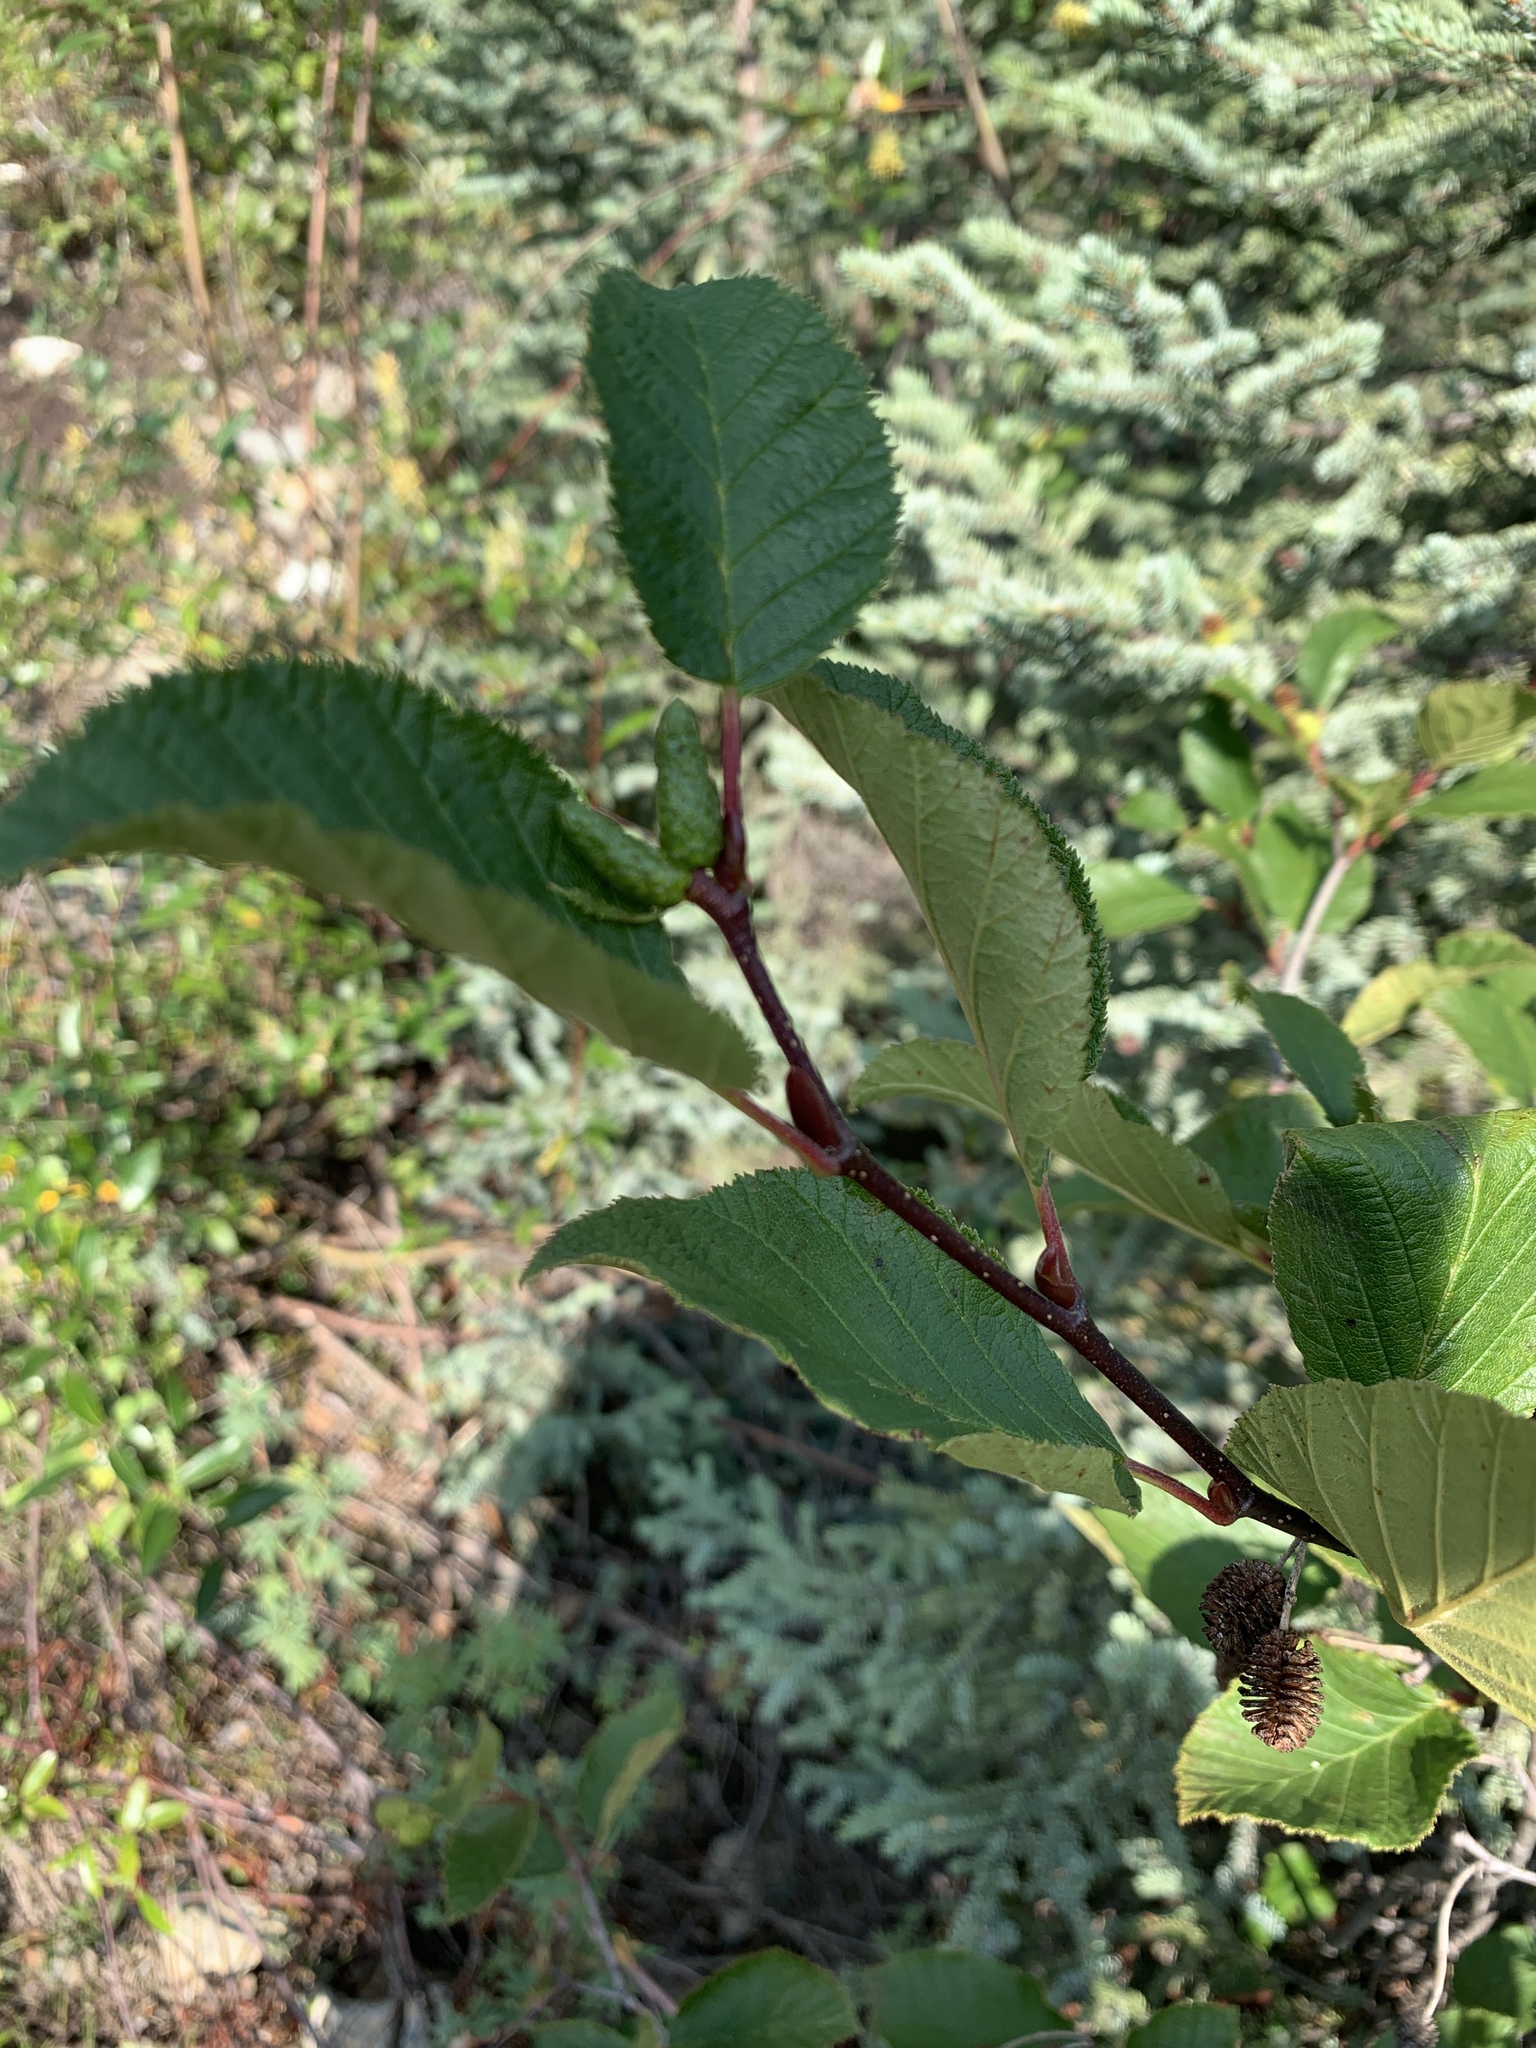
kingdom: Plantae
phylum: Tracheophyta
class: Magnoliopsida
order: Fagales
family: Betulaceae
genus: Alnus
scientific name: Alnus alnobetula
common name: Green alder
